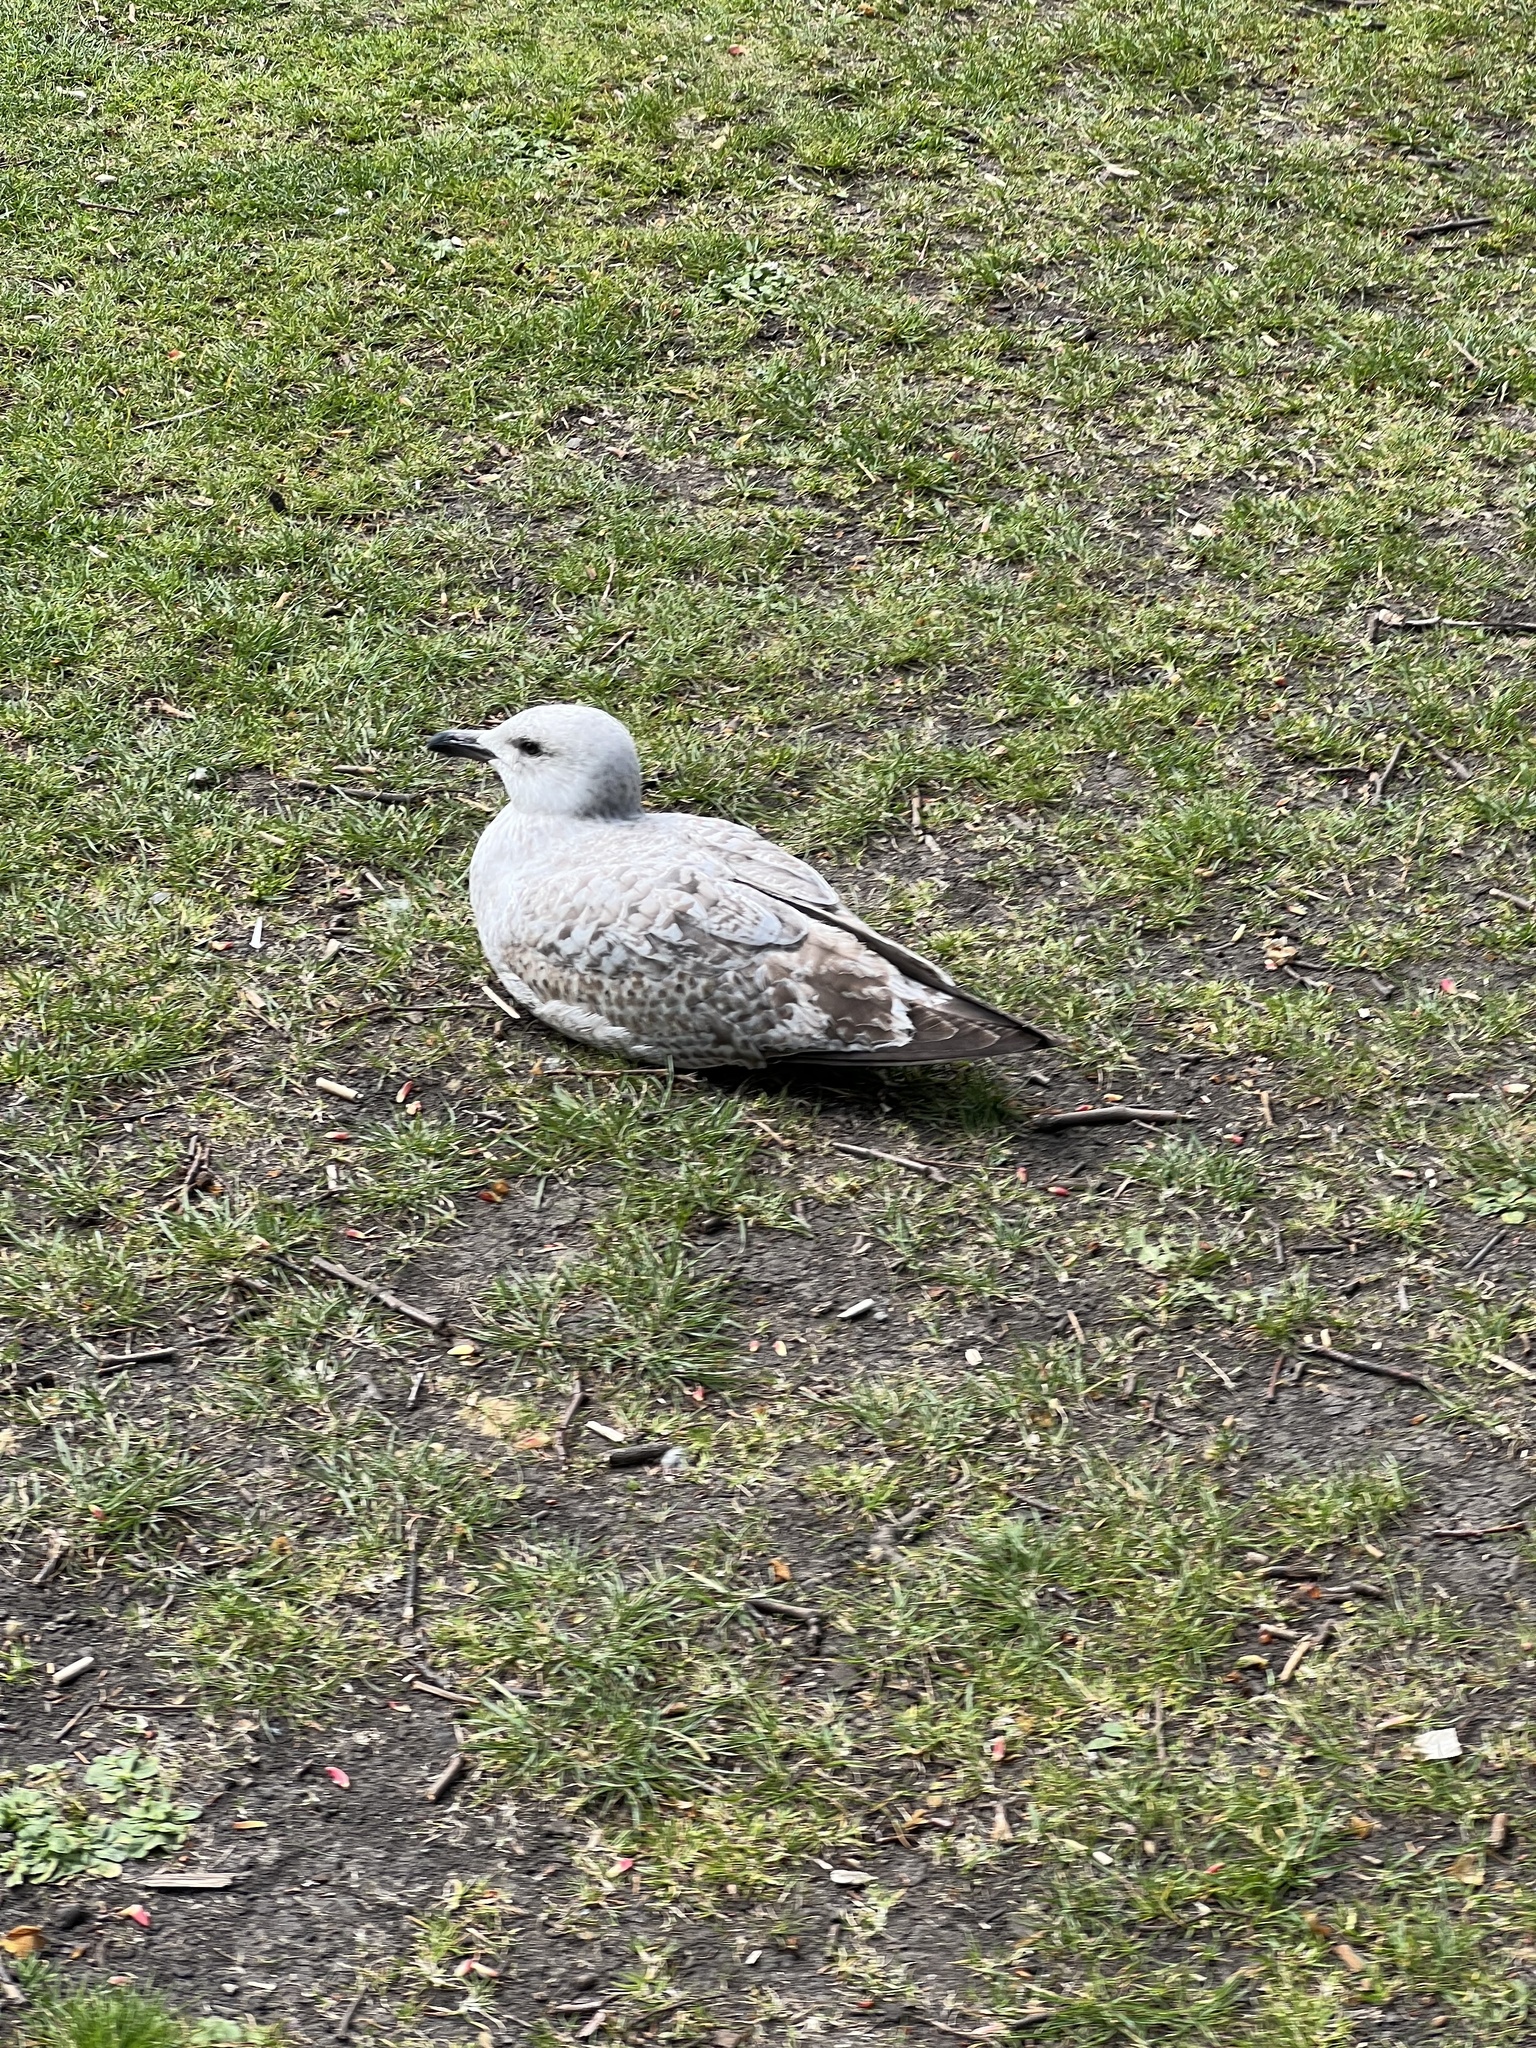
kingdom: Animalia
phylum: Chordata
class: Aves
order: Charadriiformes
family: Laridae
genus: Larus
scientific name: Larus canus
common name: Mew gull
